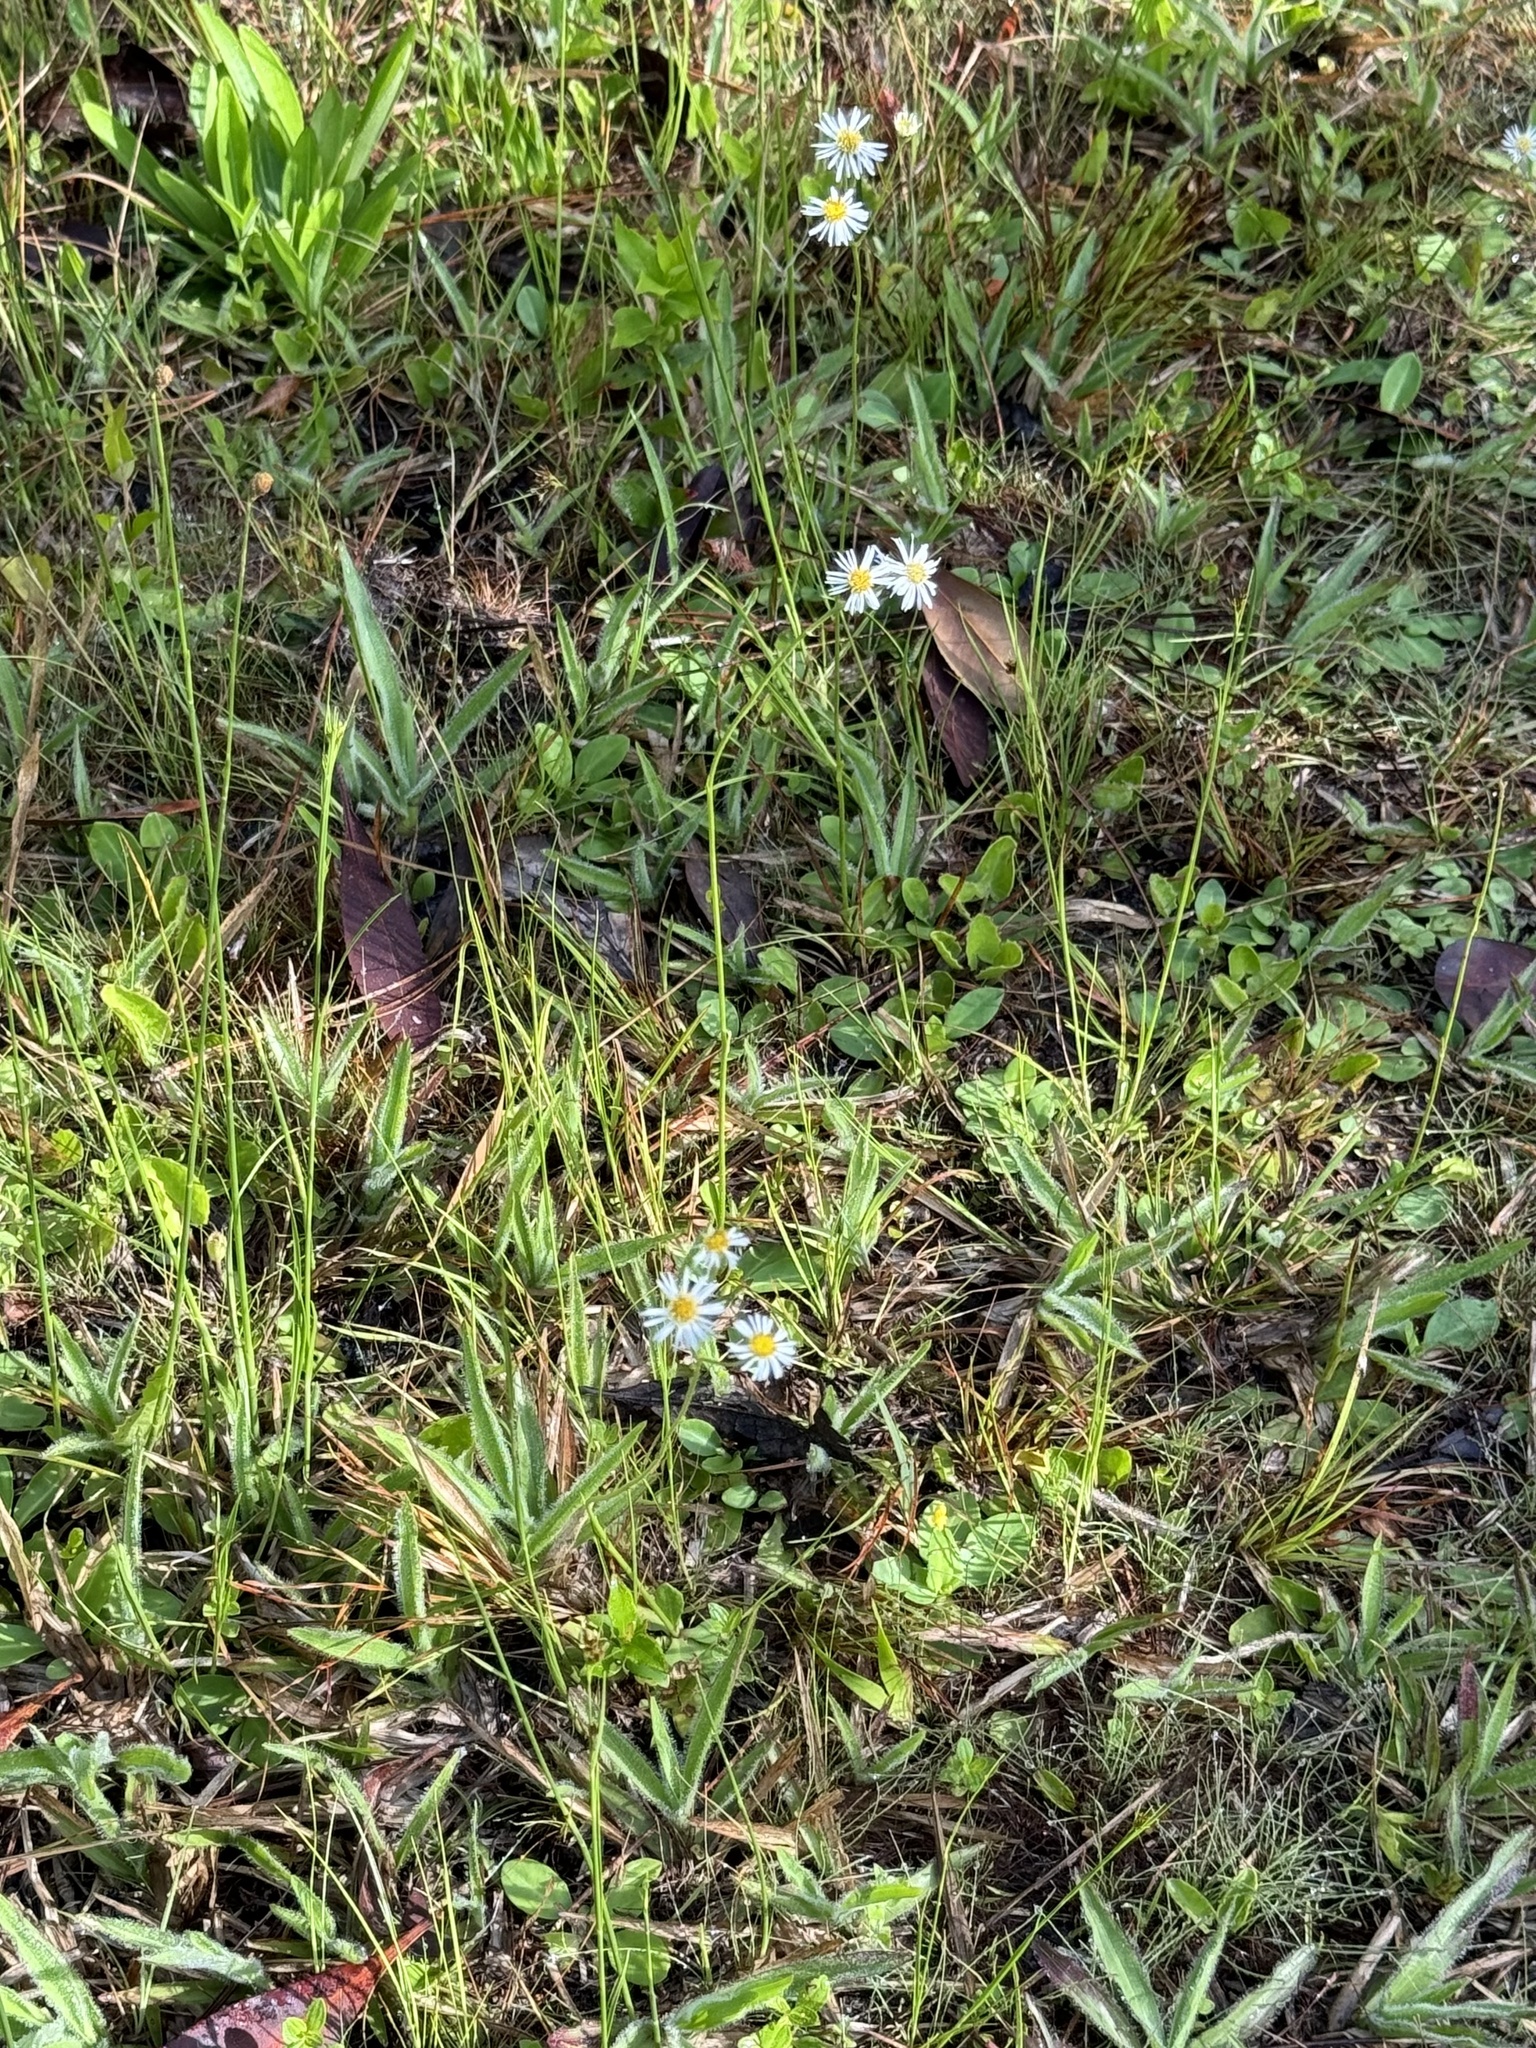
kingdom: Plantae
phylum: Tracheophyta
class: Magnoliopsida
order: Asterales
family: Asteraceae
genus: Erigeron
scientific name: Erigeron vernus
